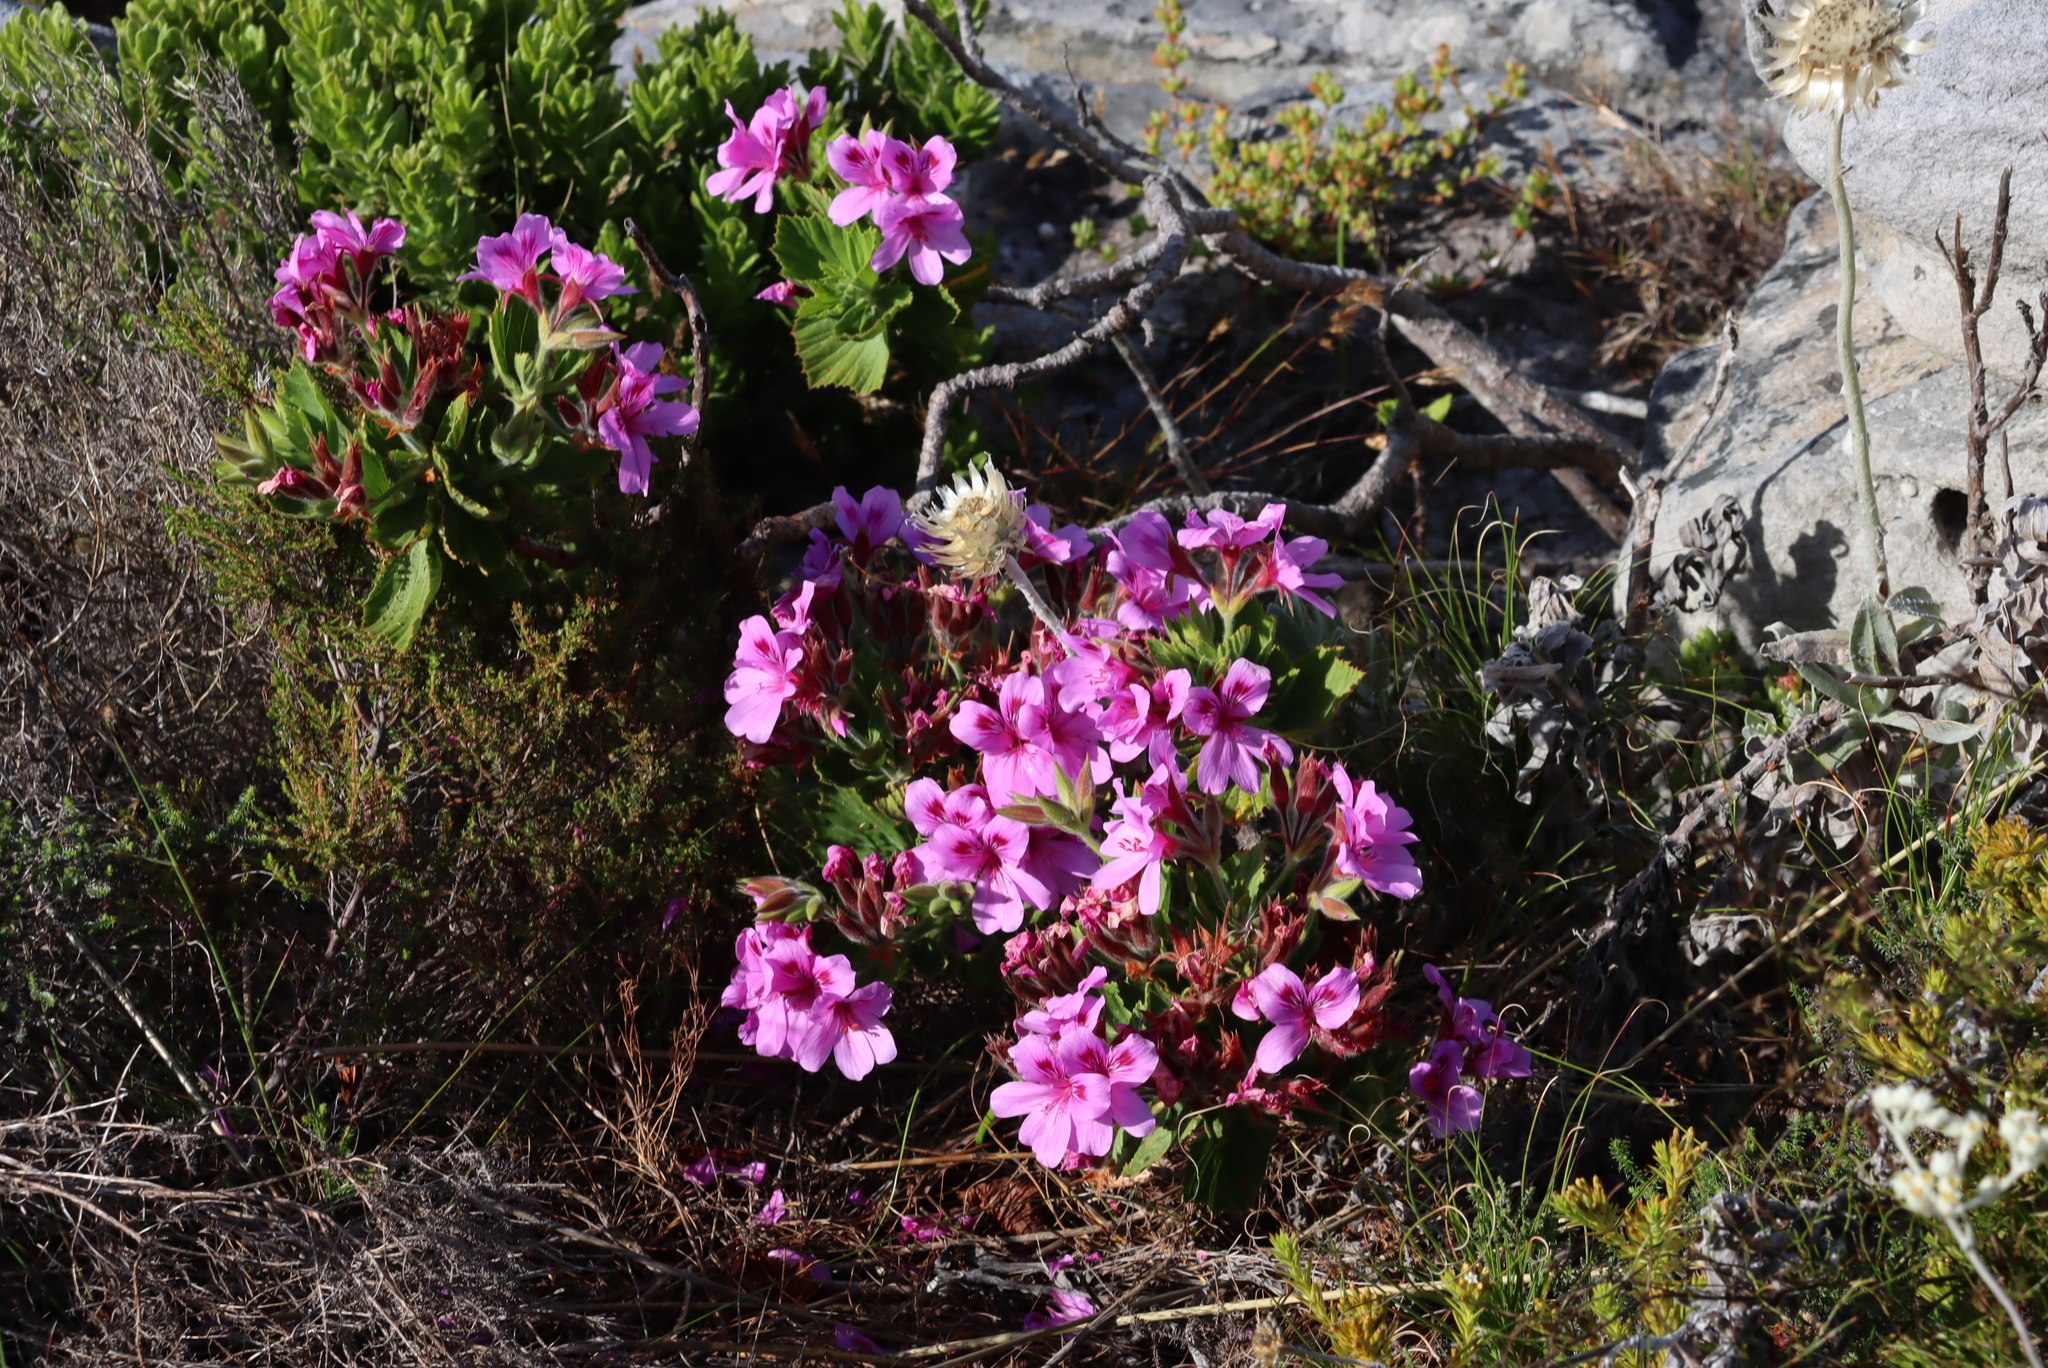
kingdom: Plantae
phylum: Tracheophyta
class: Magnoliopsida
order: Geraniales
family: Geraniaceae
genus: Pelargonium
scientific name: Pelargonium cucullatum
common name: Tree pelargonium
